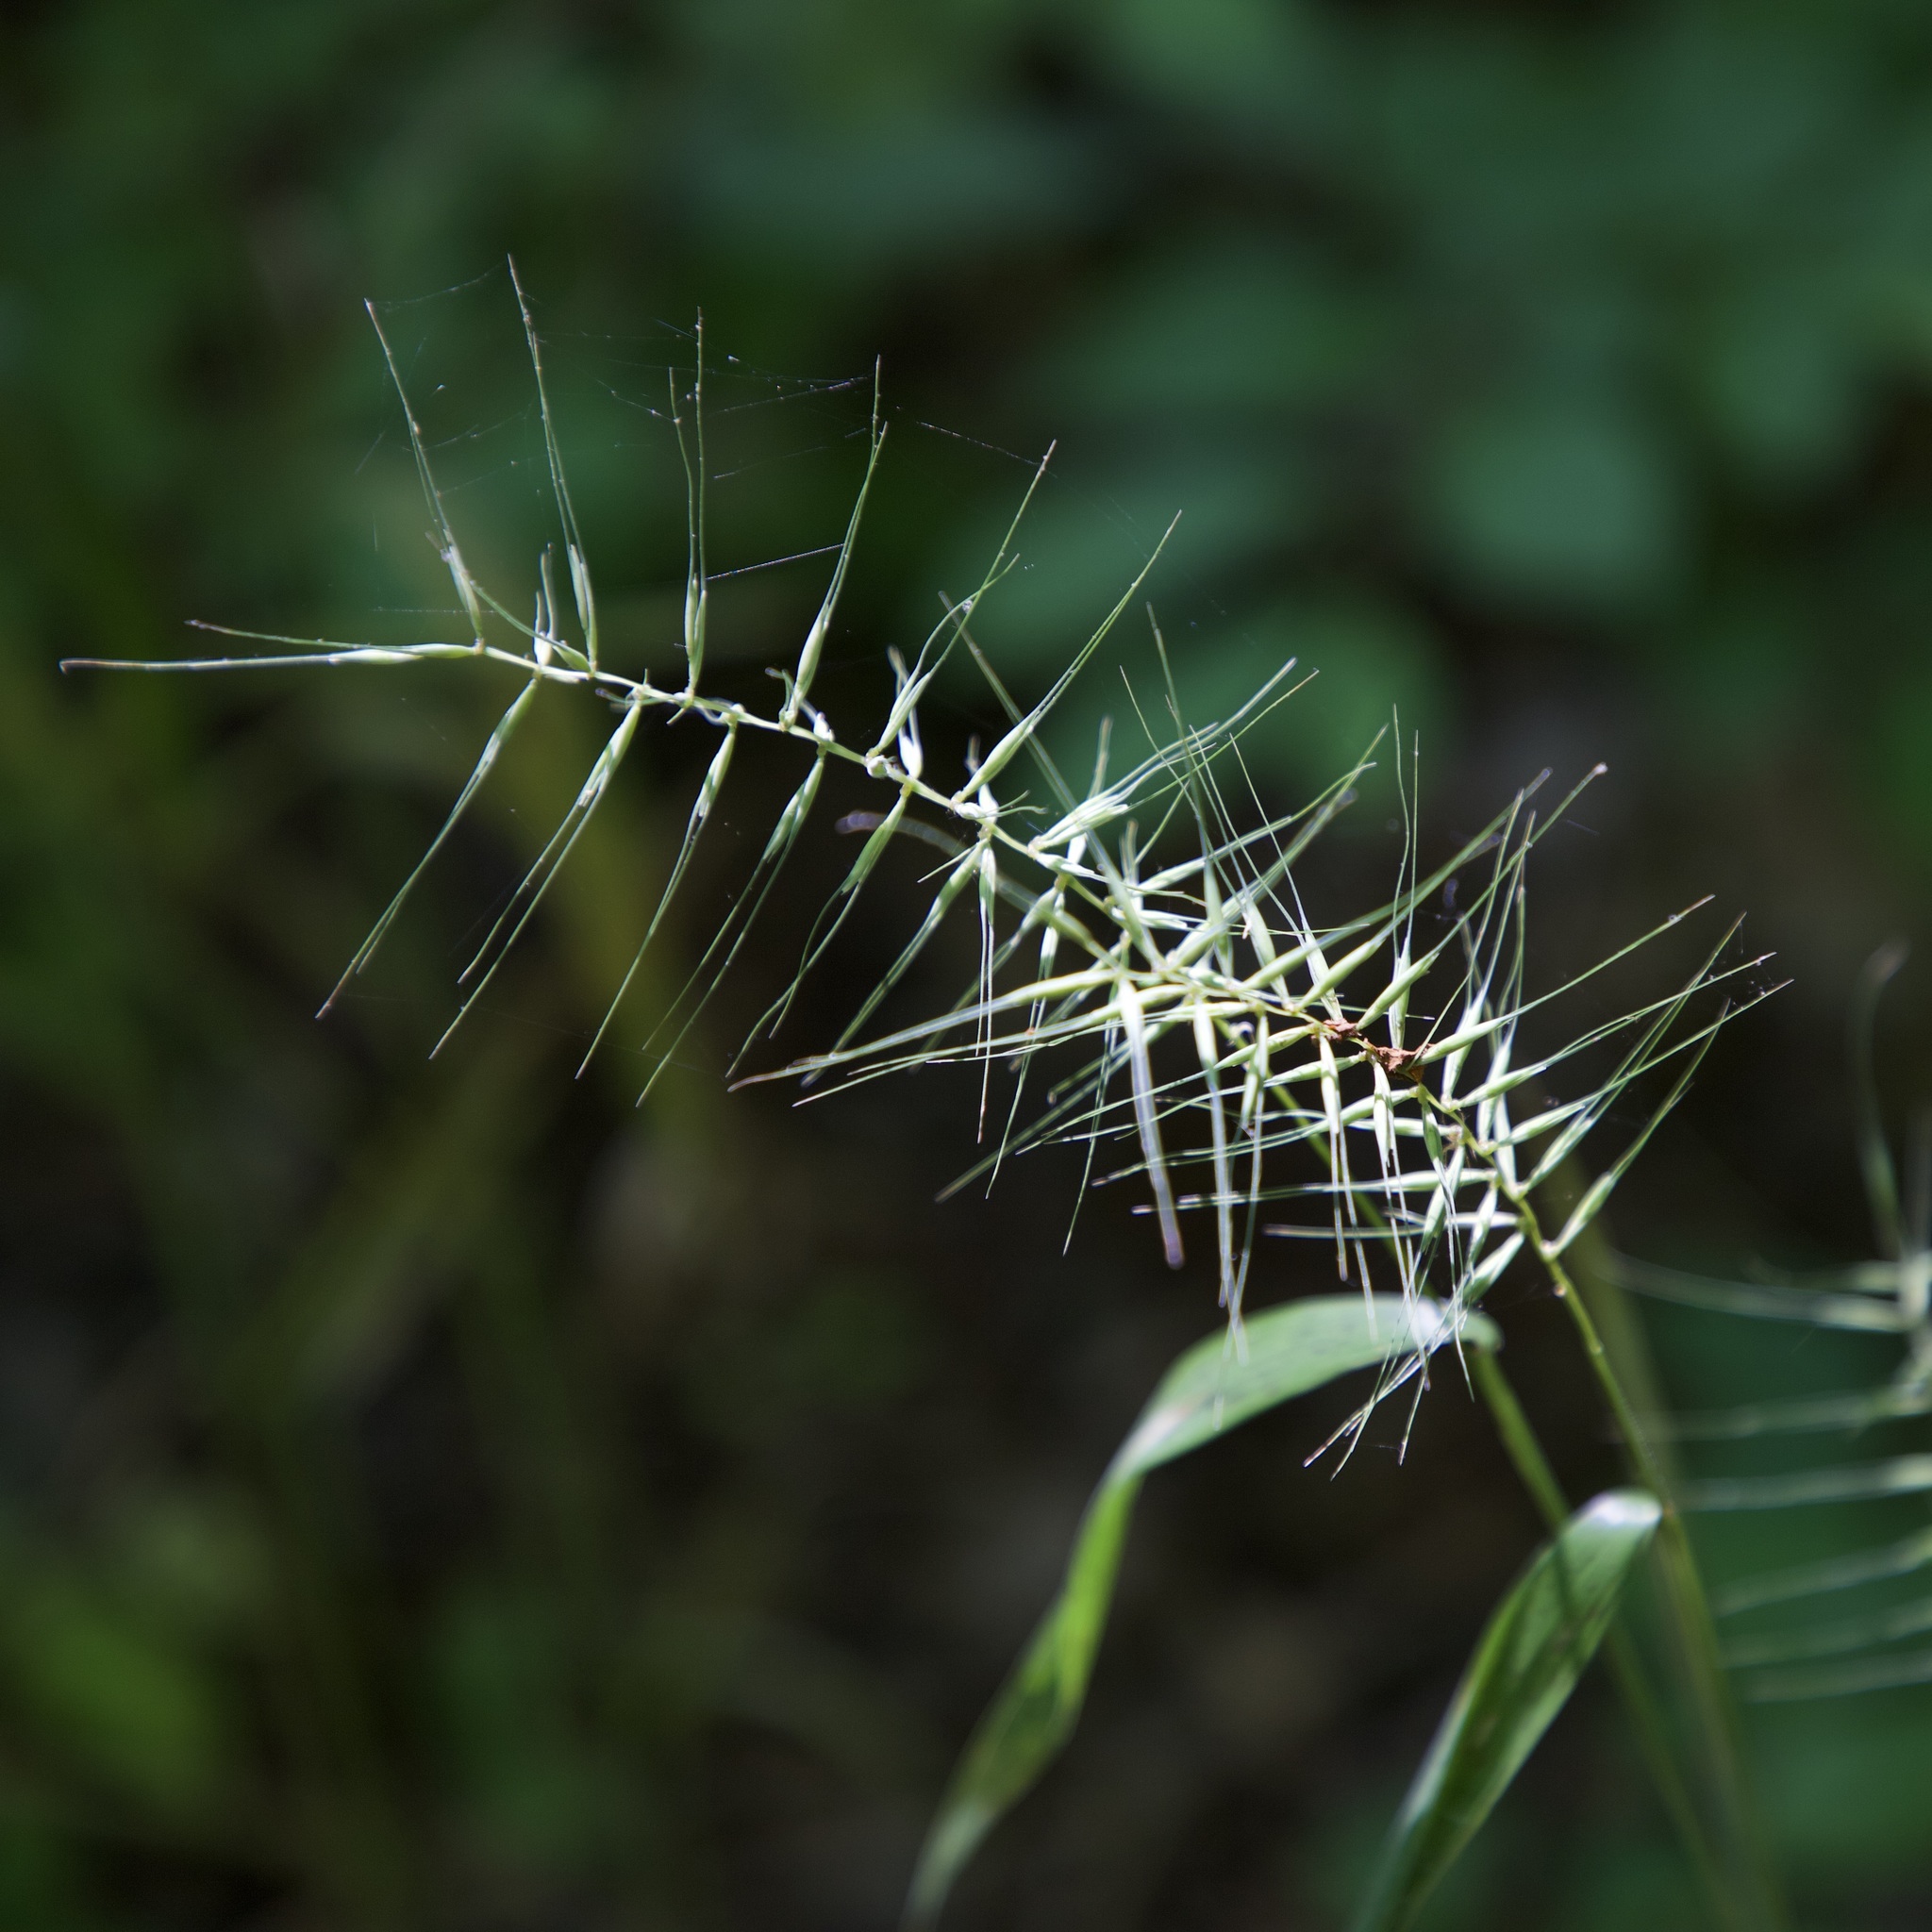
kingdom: Plantae
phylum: Tracheophyta
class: Liliopsida
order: Poales
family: Poaceae
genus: Elymus
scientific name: Elymus hystrix
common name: Bottlebrush grass
